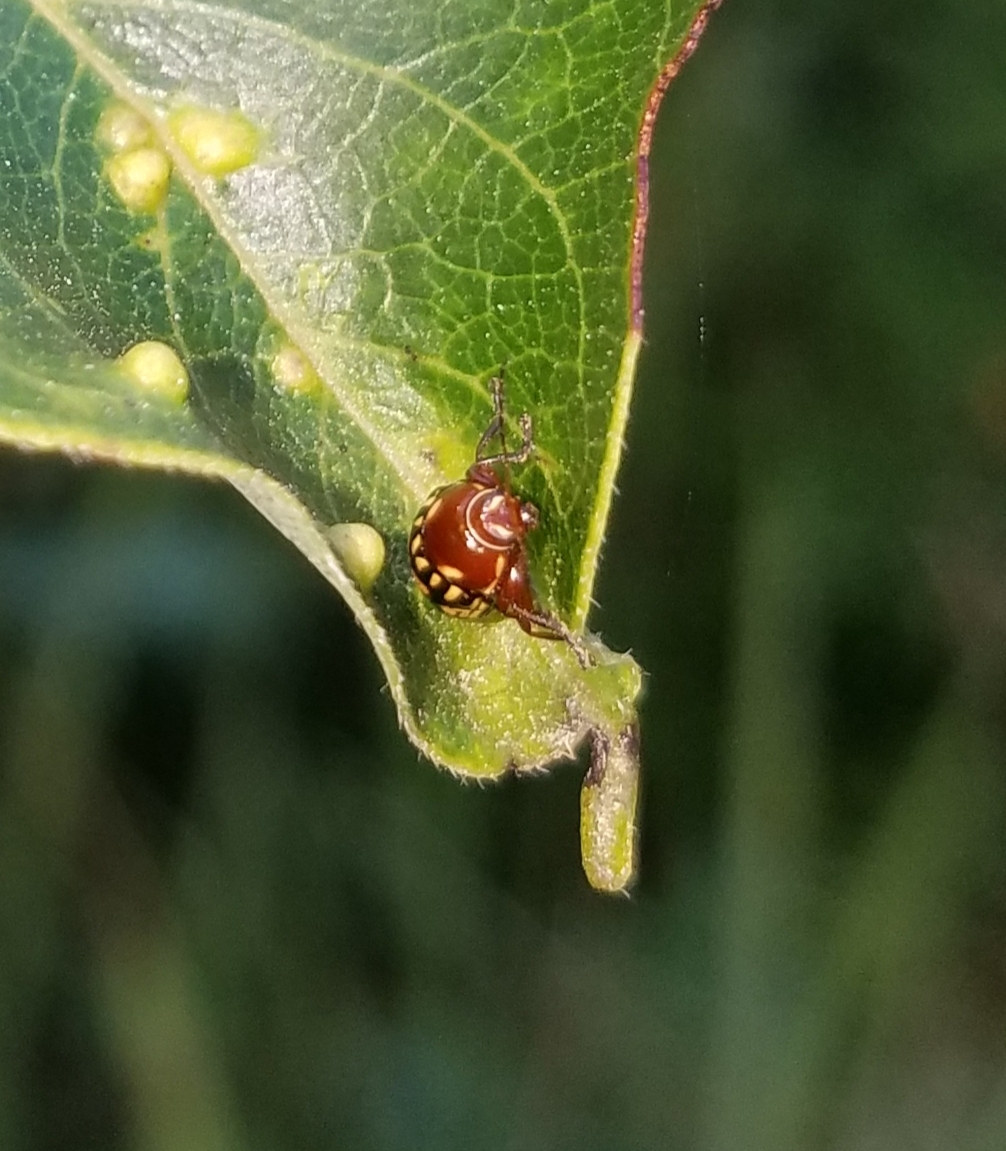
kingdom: Animalia
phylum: Arthropoda
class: Arachnida
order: Trombidiformes
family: Eriophyidae
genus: Aceria
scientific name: Aceria
